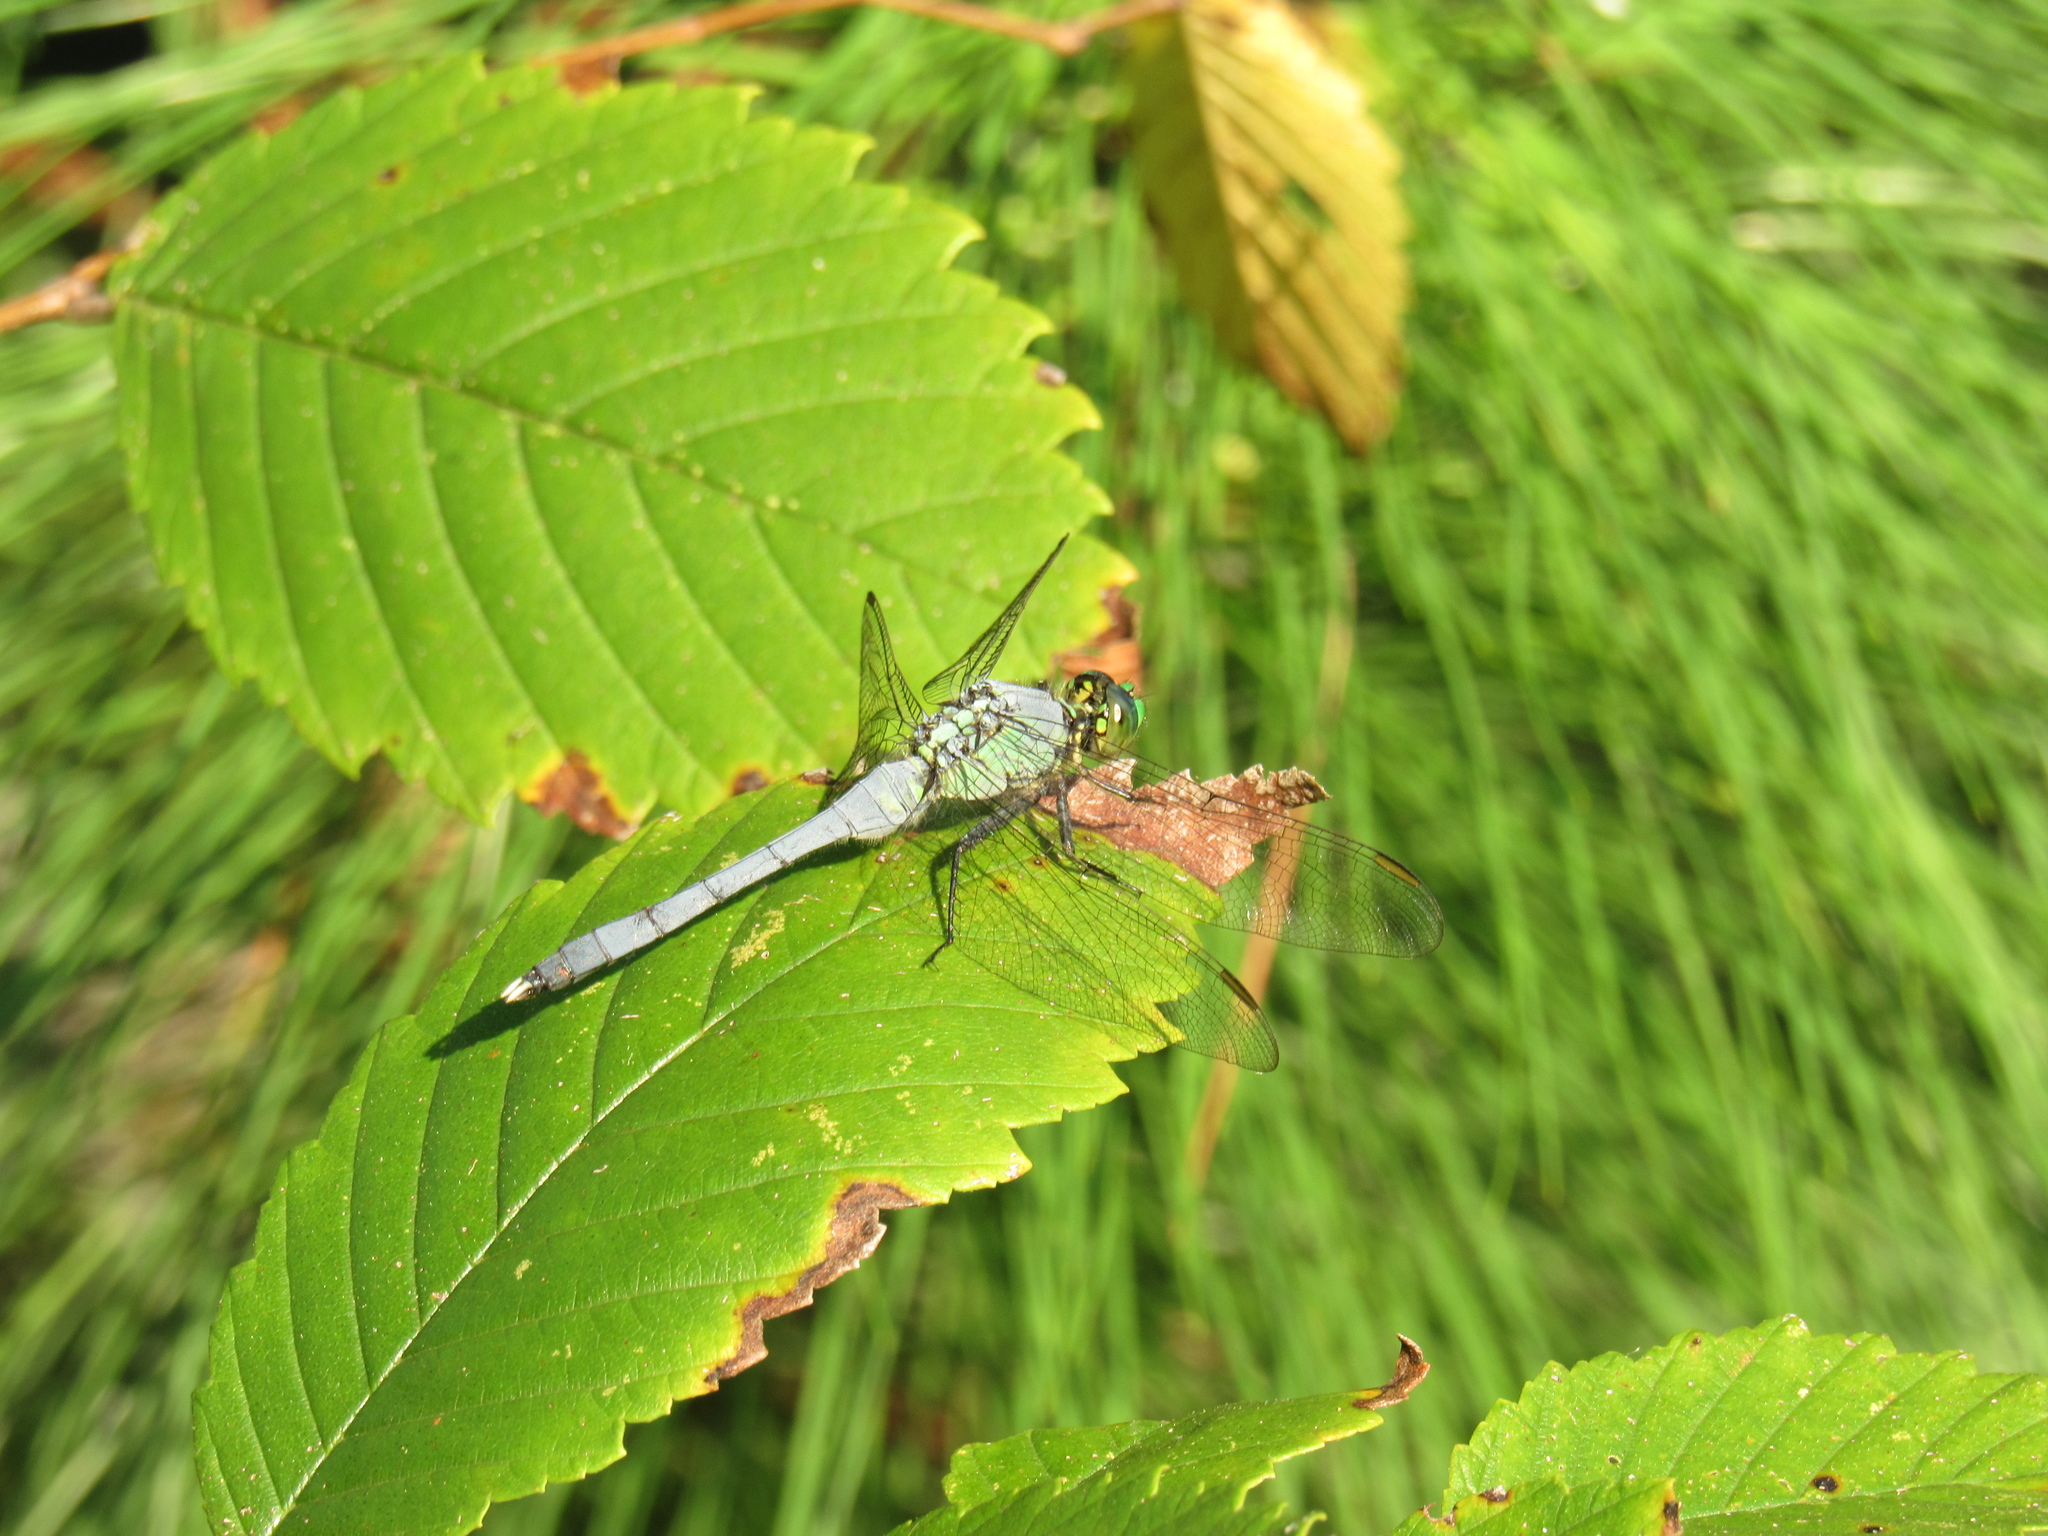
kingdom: Animalia
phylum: Arthropoda
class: Insecta
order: Odonata
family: Libellulidae
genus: Erythemis
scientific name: Erythemis simplicicollis
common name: Eastern pondhawk
